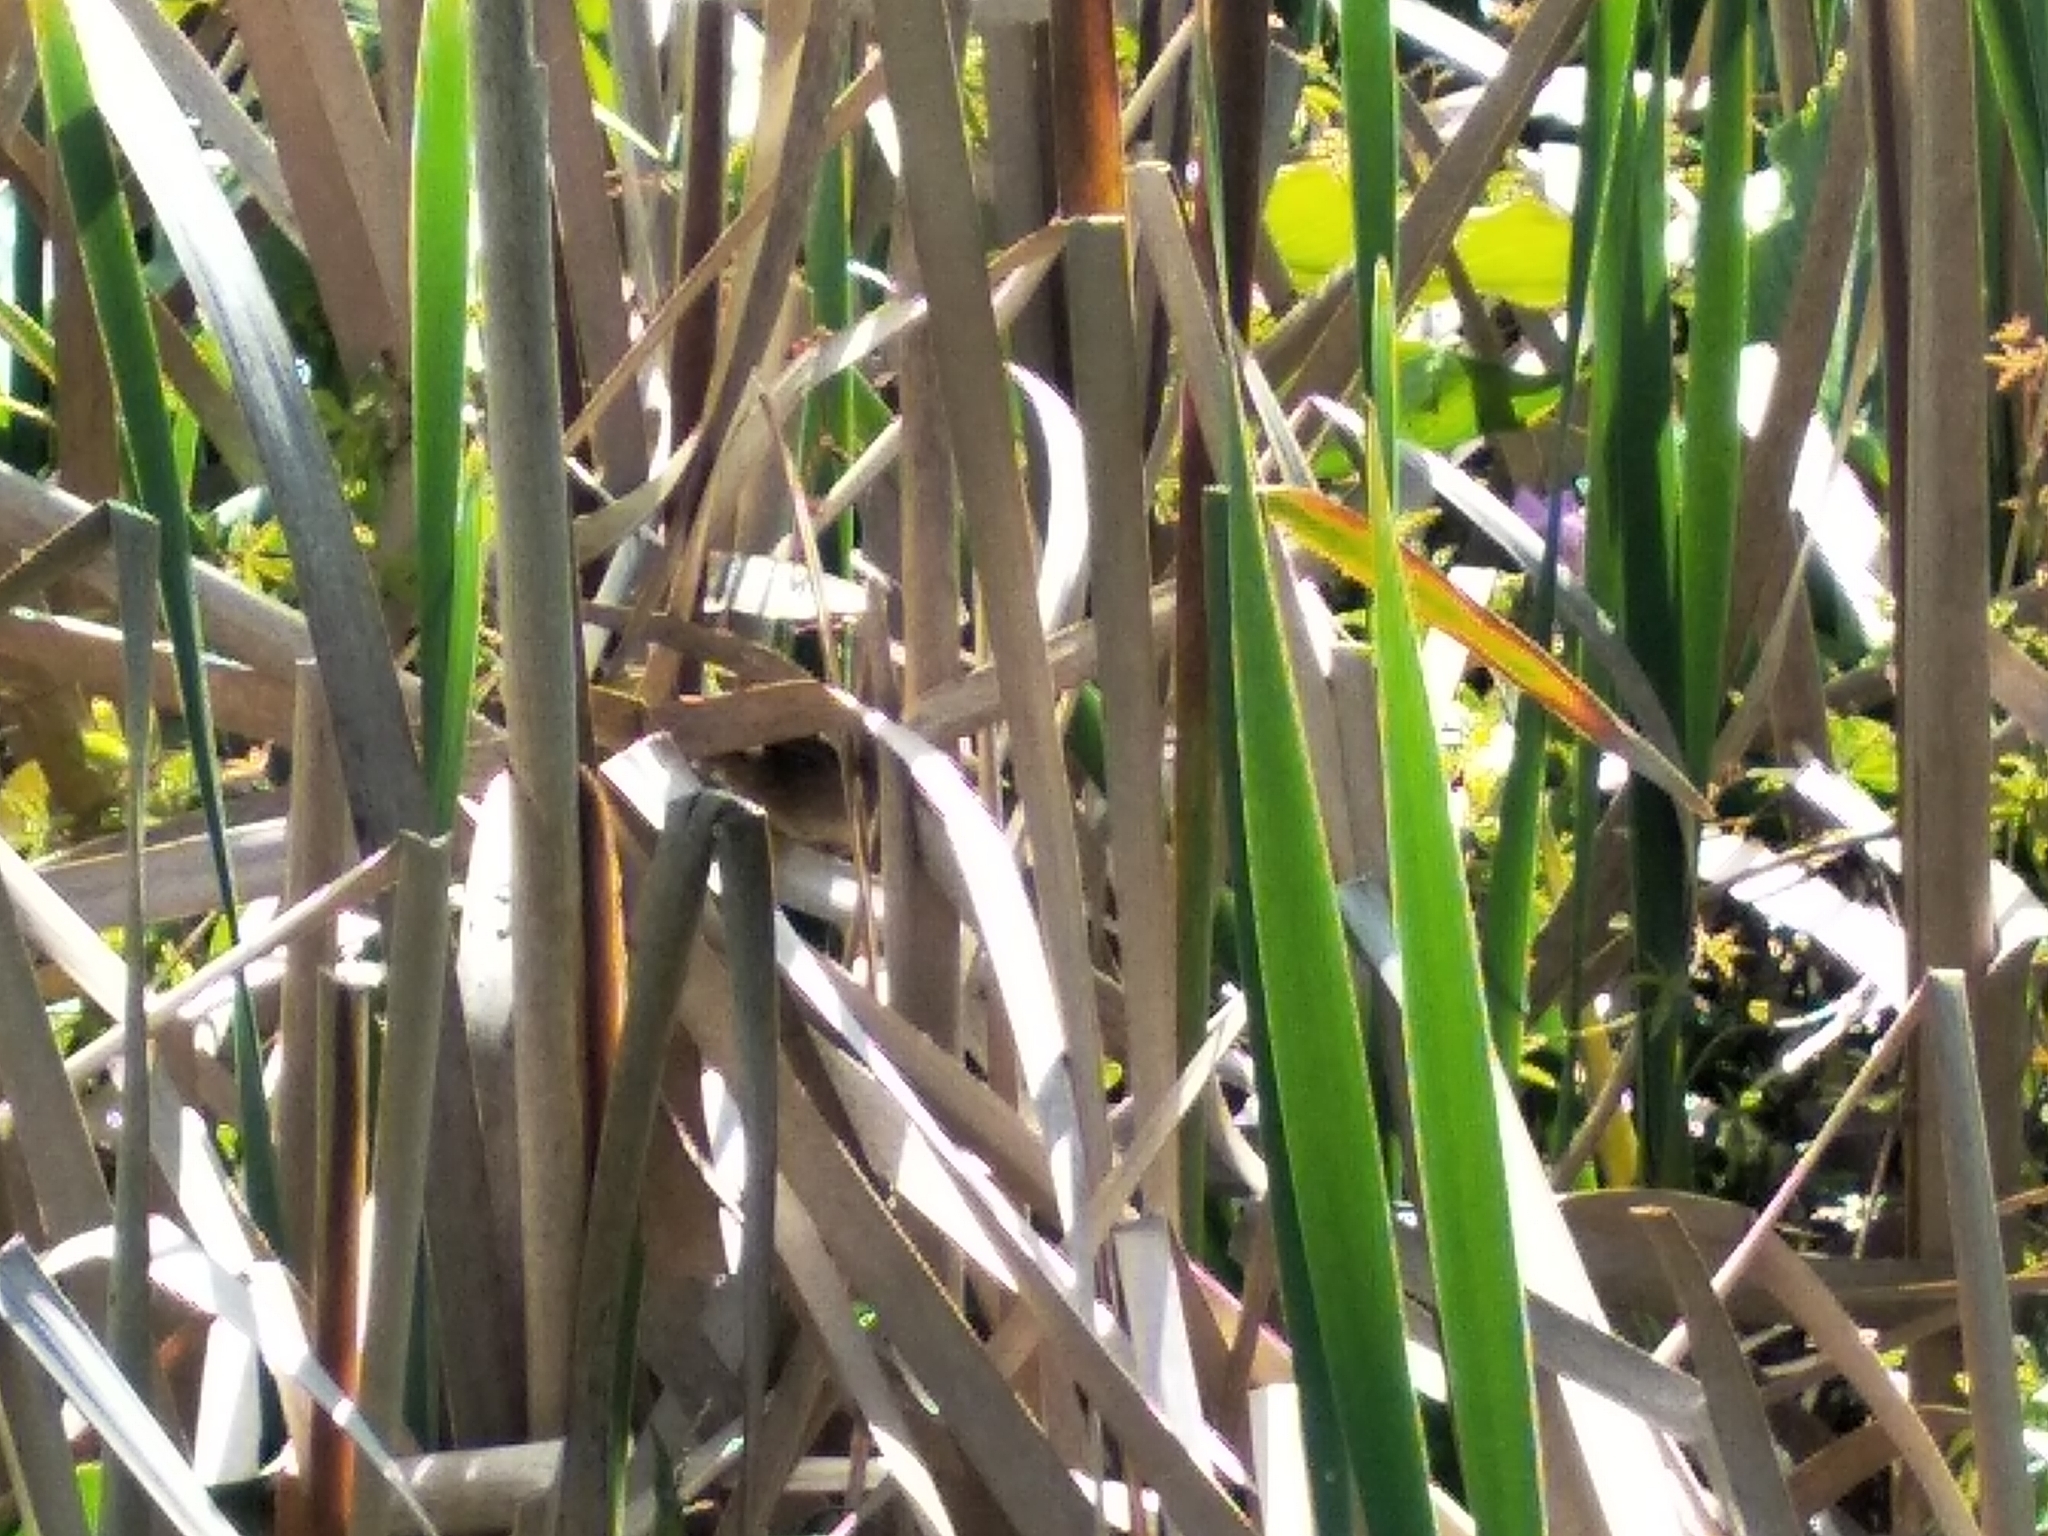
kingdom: Animalia
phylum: Chordata
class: Aves
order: Passeriformes
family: Locustellidae
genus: Bradypterus
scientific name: Bradypterus baboecala
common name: Little rush warbler
